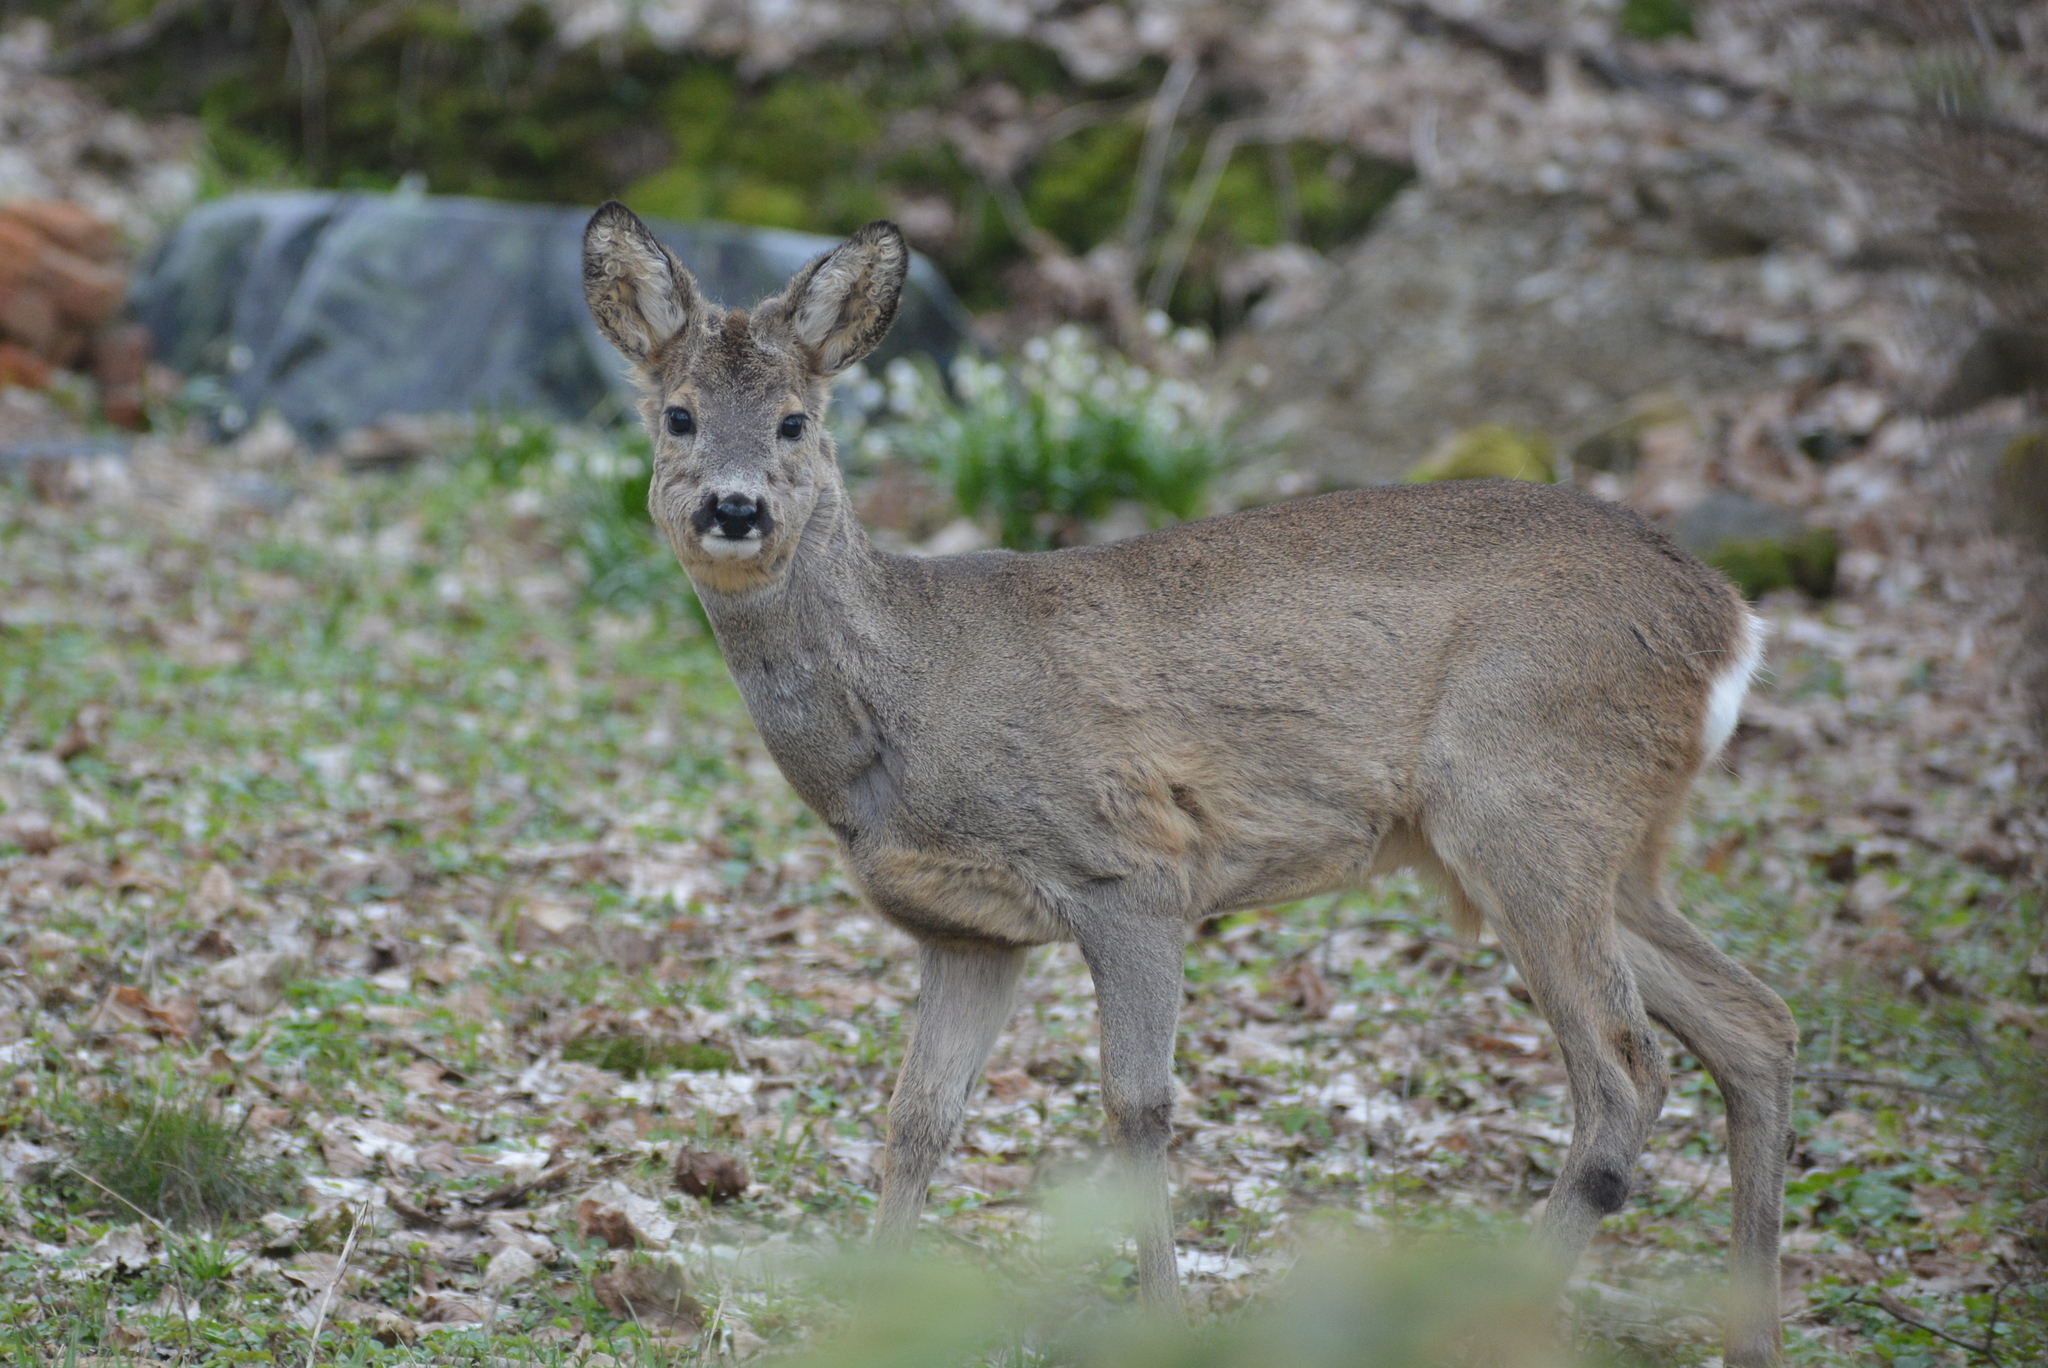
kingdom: Animalia
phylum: Chordata
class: Mammalia
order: Artiodactyla
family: Cervidae
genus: Capreolus
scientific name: Capreolus capreolus
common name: Western roe deer
